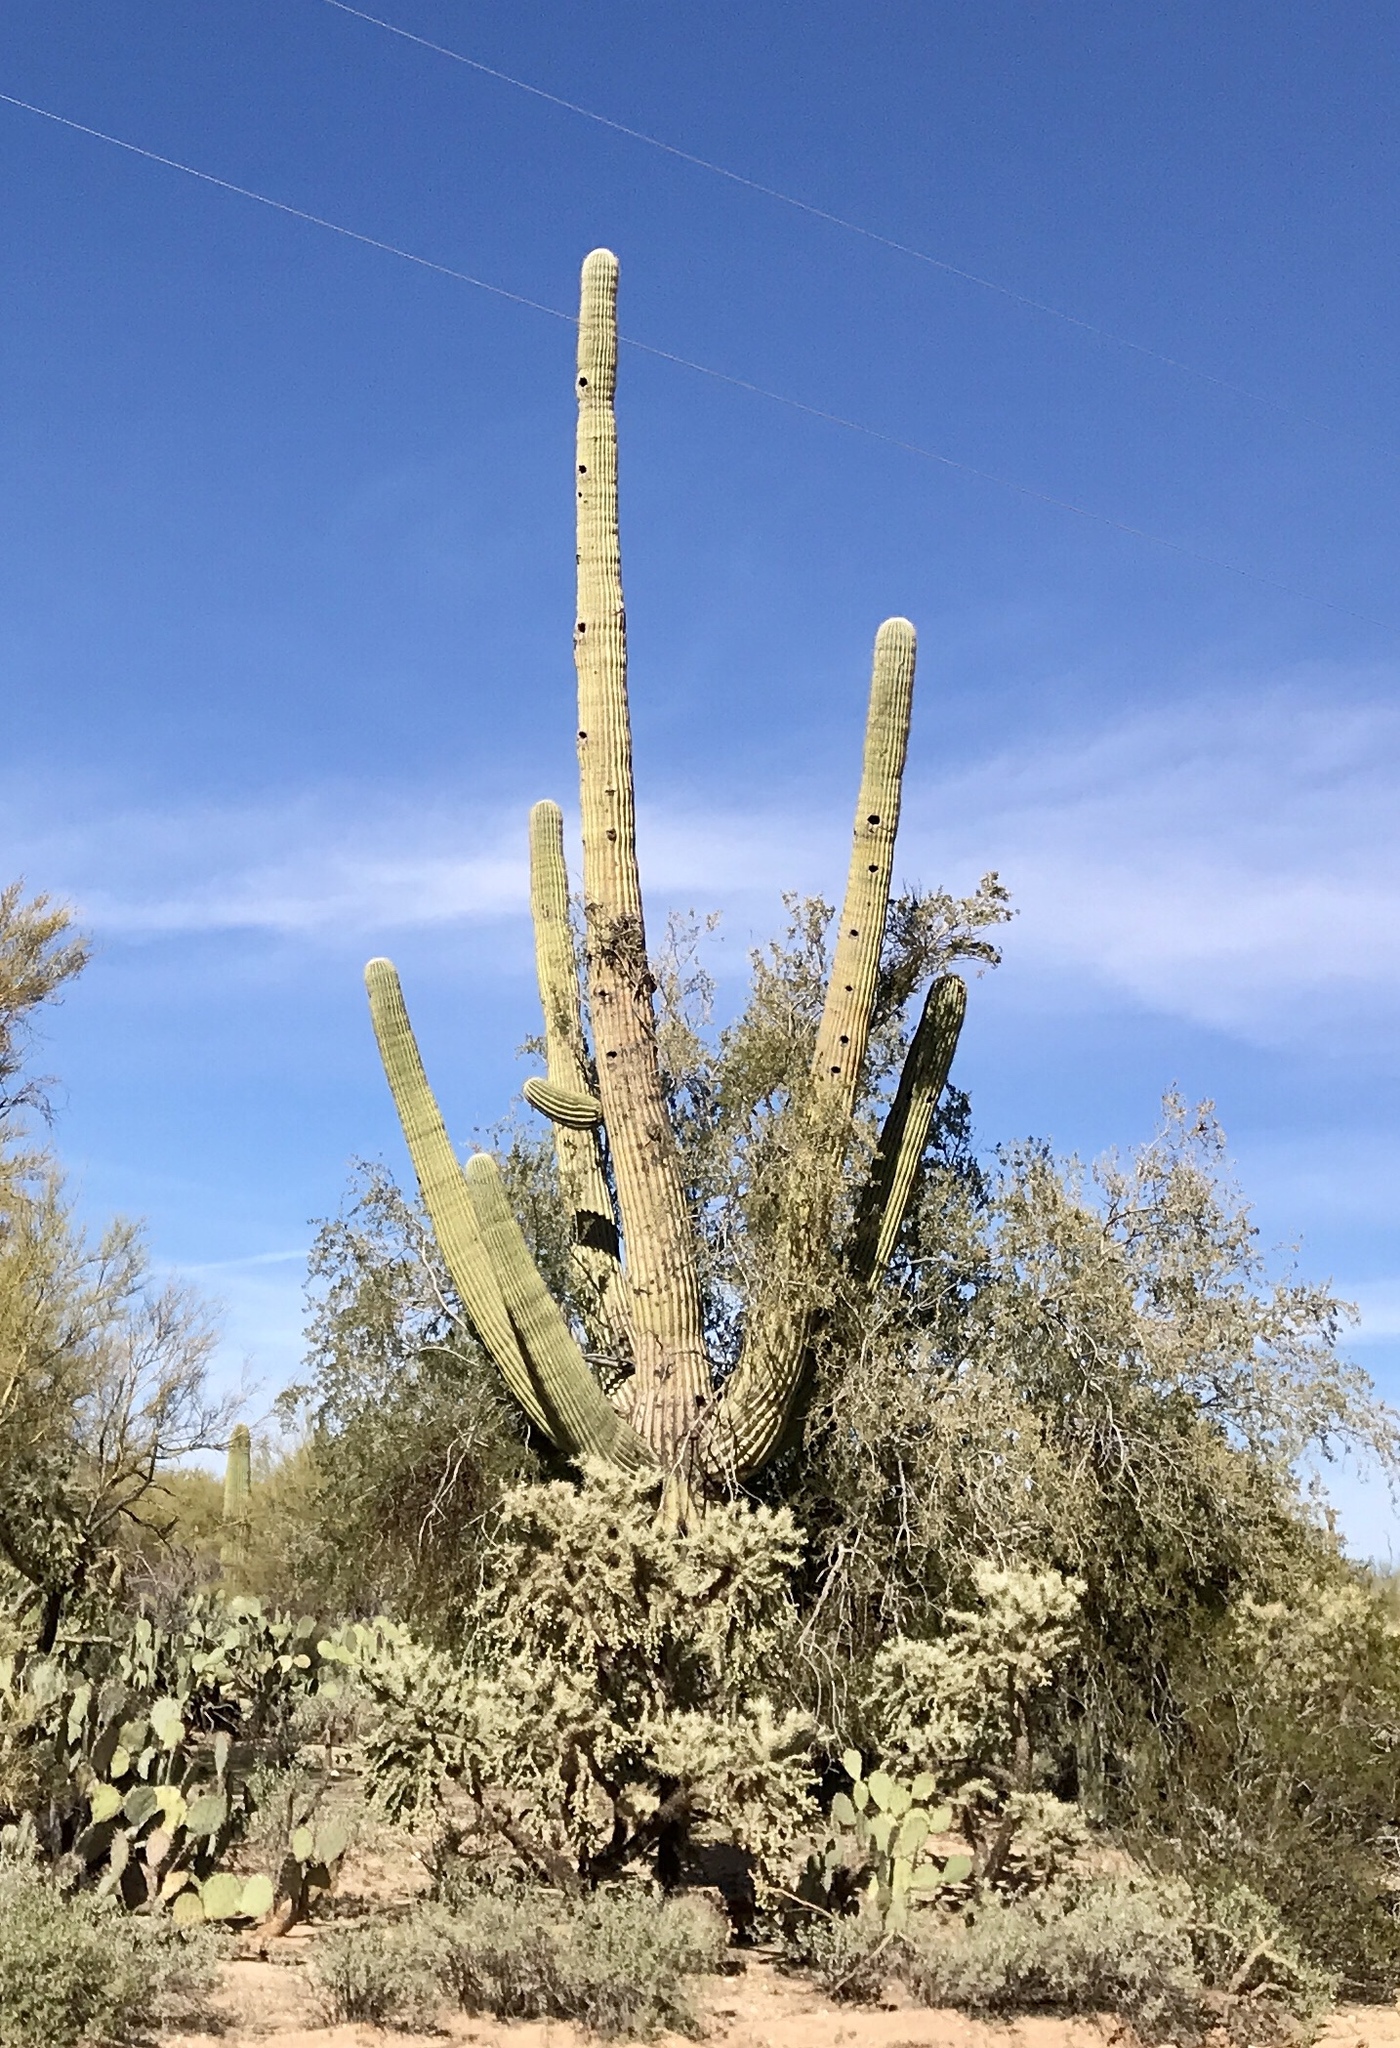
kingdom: Plantae
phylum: Tracheophyta
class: Magnoliopsida
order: Caryophyllales
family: Cactaceae
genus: Carnegiea
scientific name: Carnegiea gigantea
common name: Saguaro
